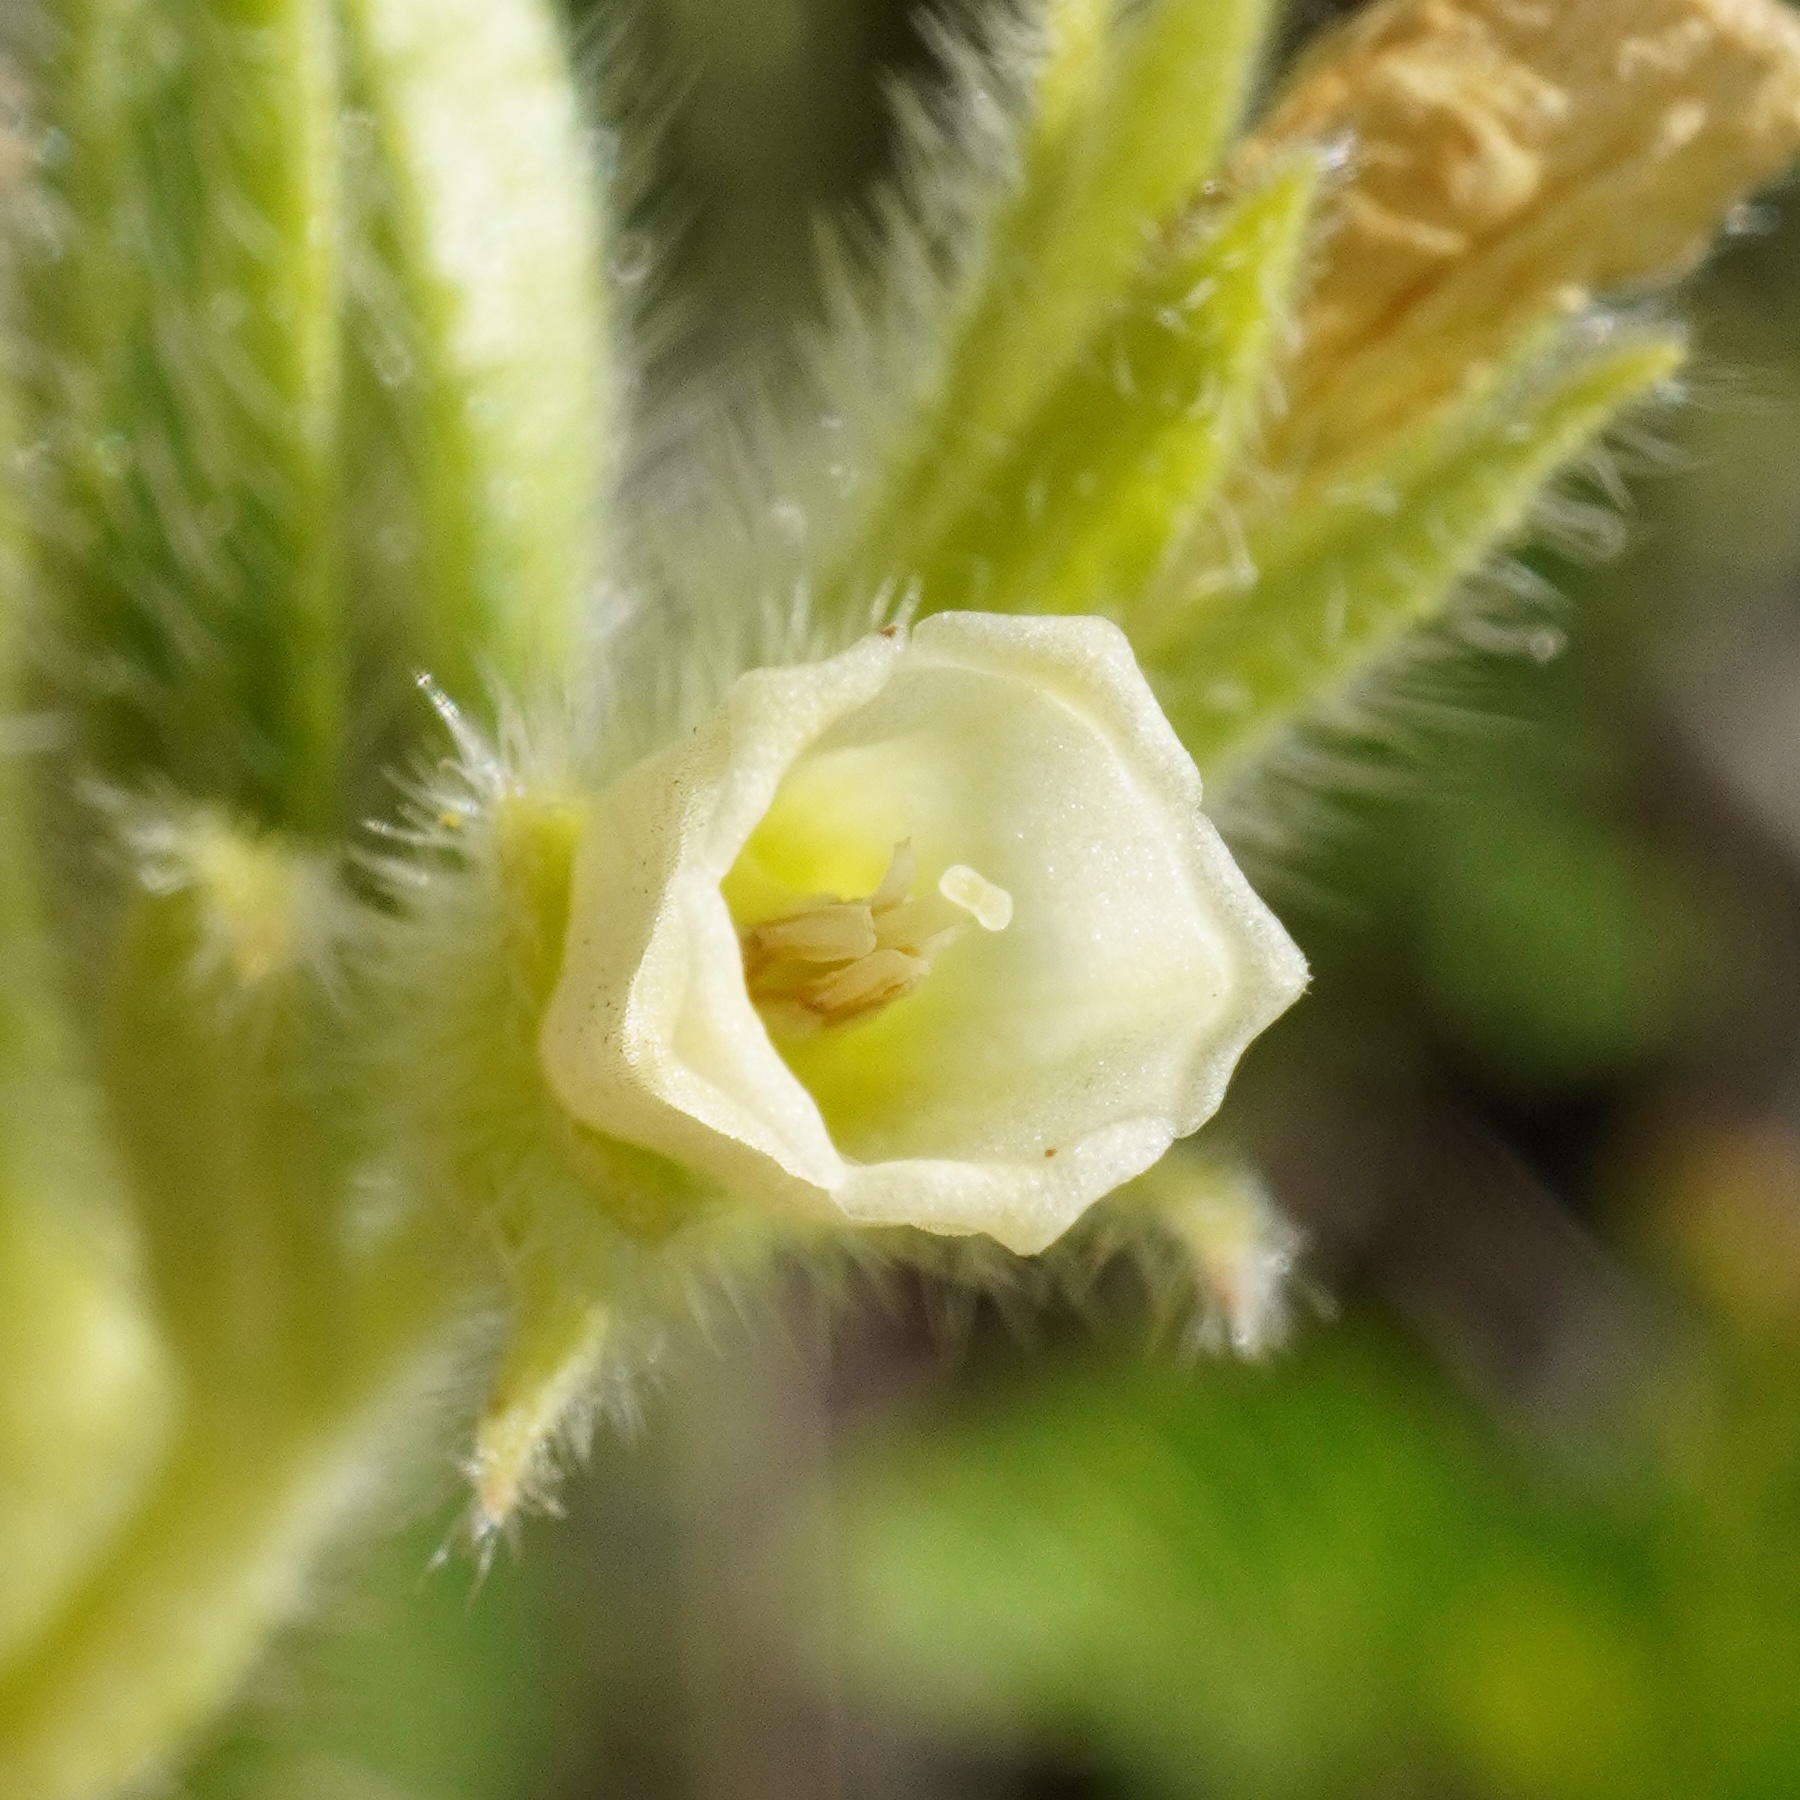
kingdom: Plantae
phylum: Tracheophyta
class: Magnoliopsida
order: Boraginales
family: Boraginaceae
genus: Onosma
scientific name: Onosma arenaria
